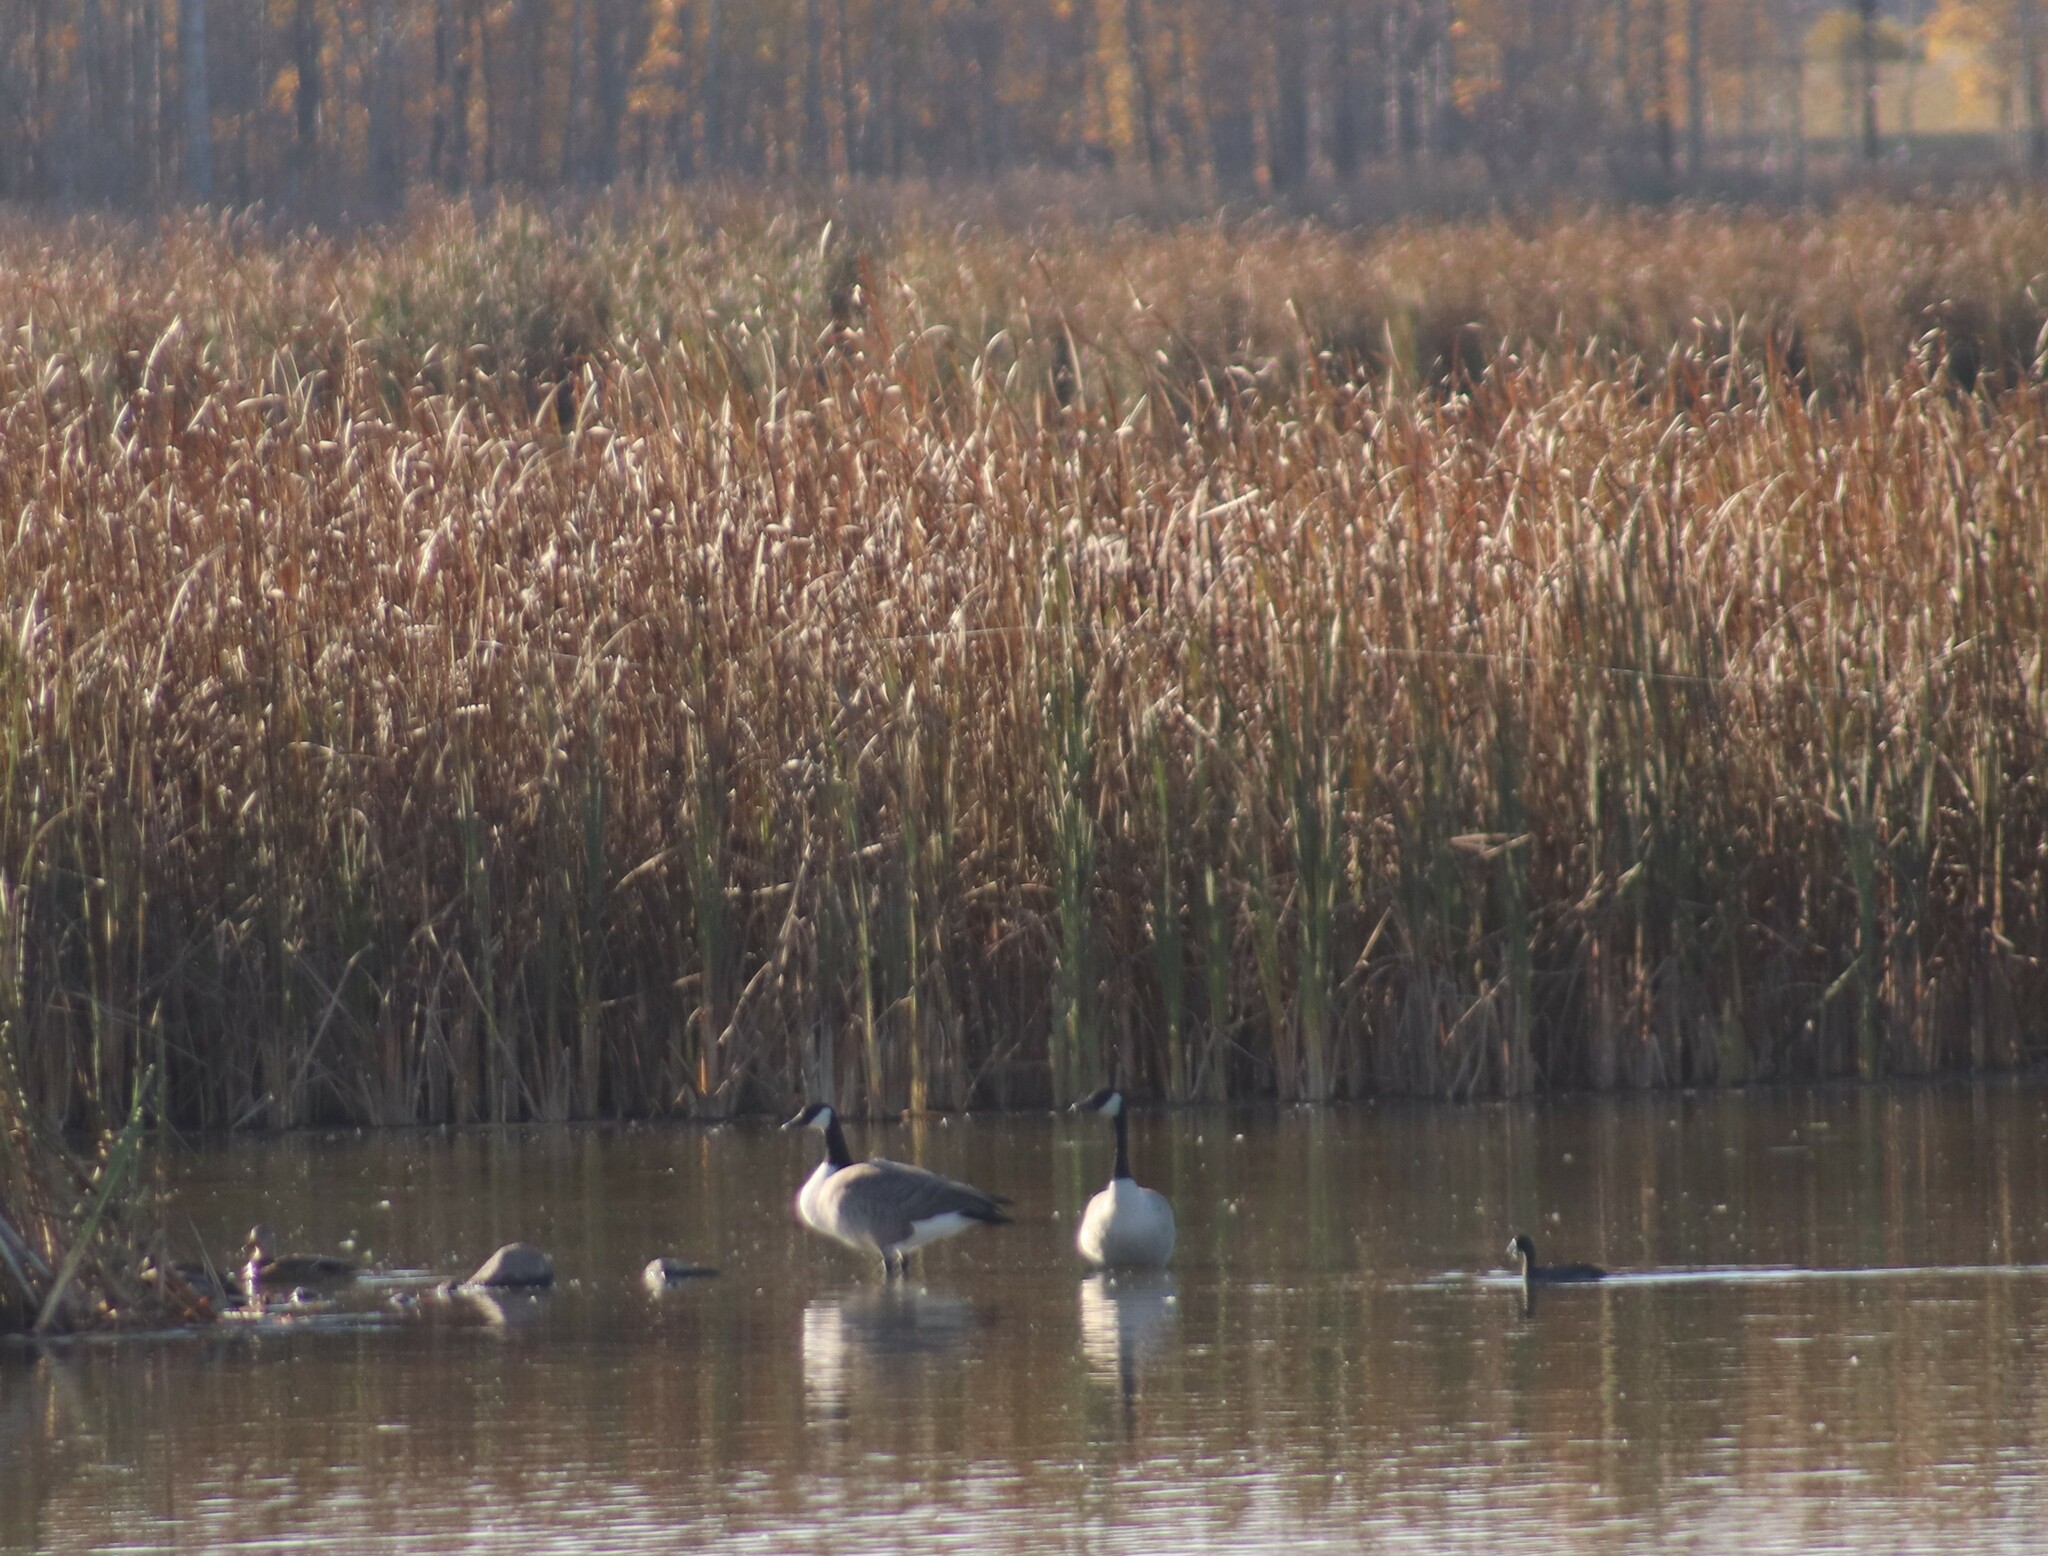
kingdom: Animalia
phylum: Chordata
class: Aves
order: Anseriformes
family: Anatidae
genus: Branta
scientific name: Branta canadensis
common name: Canada goose
